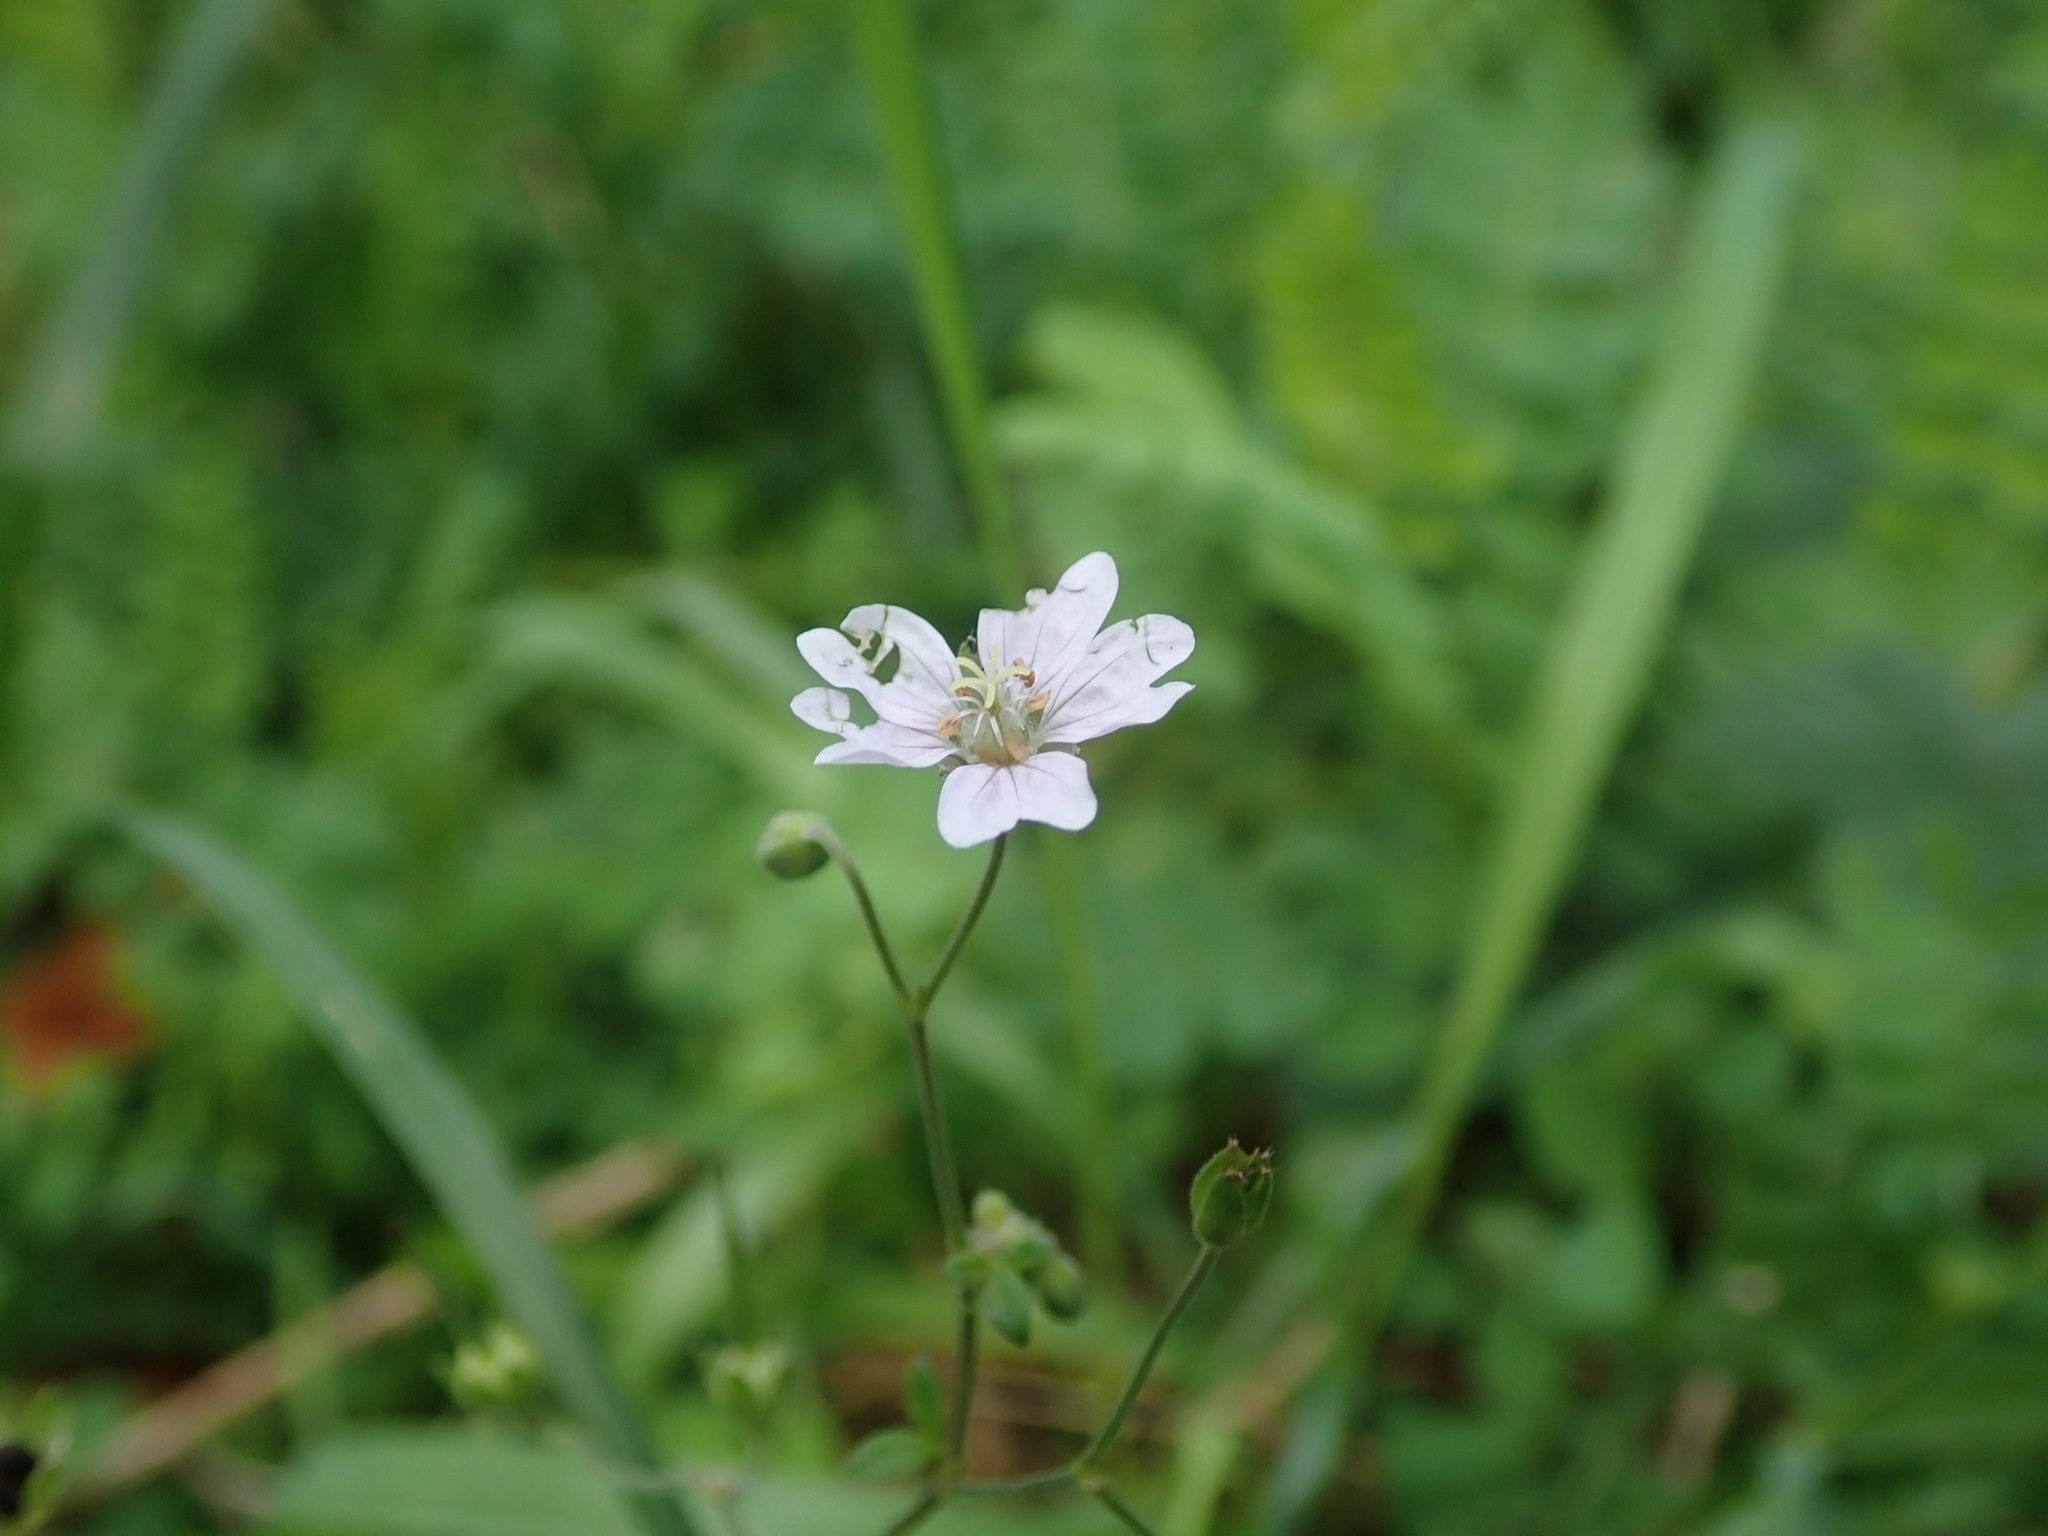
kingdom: Plantae
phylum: Tracheophyta
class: Magnoliopsida
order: Geraniales
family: Geraniaceae
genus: Geranium
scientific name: Geranium pyrenaicum
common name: Hedgerow crane's-bill
